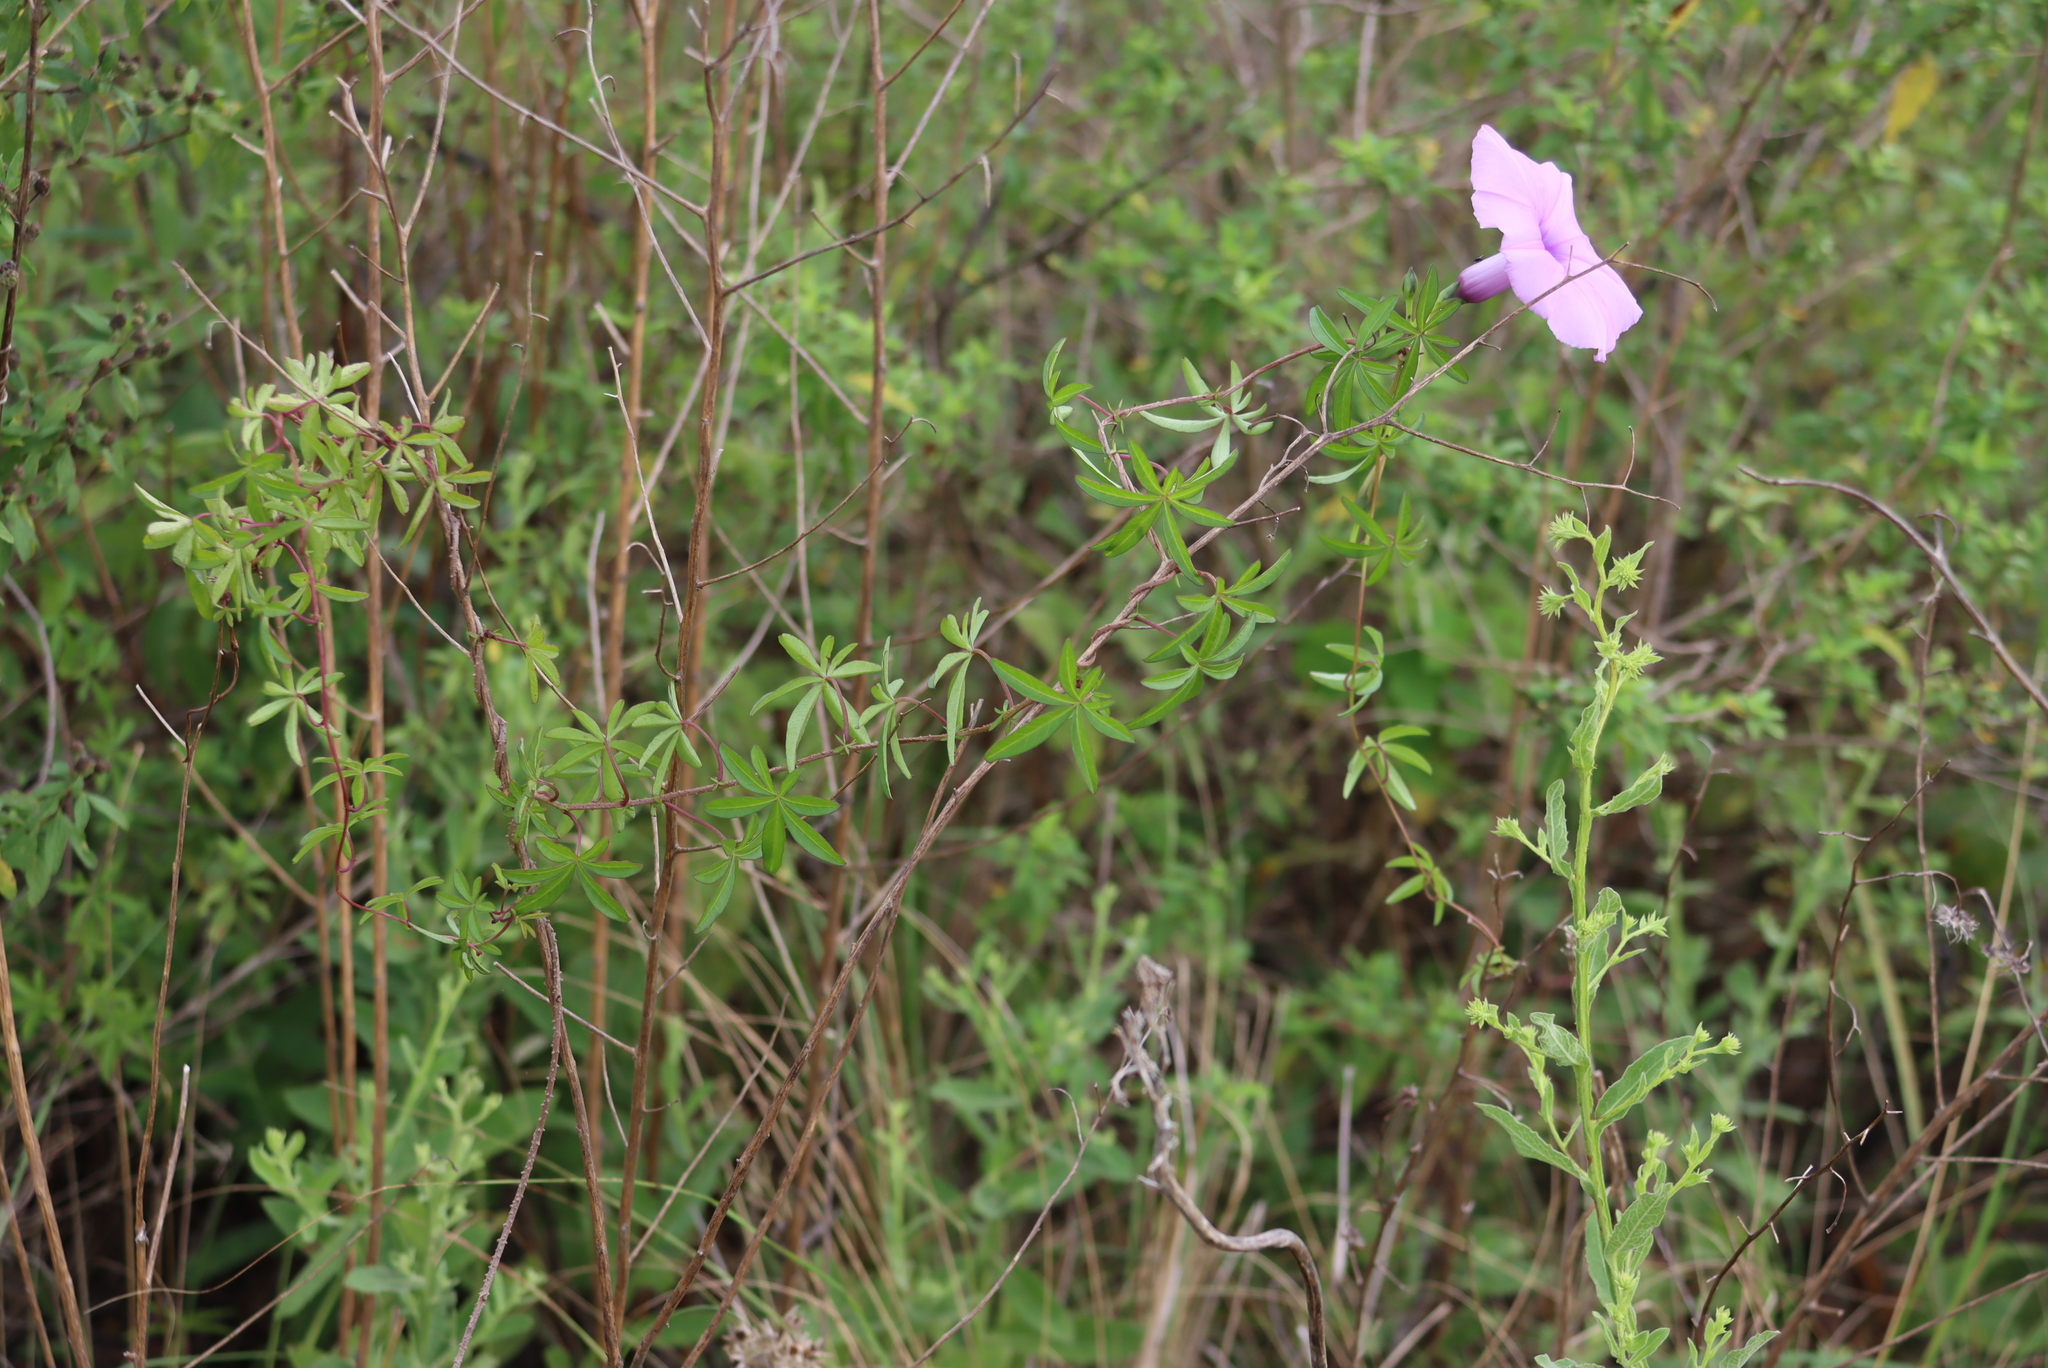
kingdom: Plantae
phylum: Tracheophyta
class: Magnoliopsida
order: Solanales
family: Convolvulaceae
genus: Ipomoea
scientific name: Ipomoea cairica
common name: Mile a minute vine
